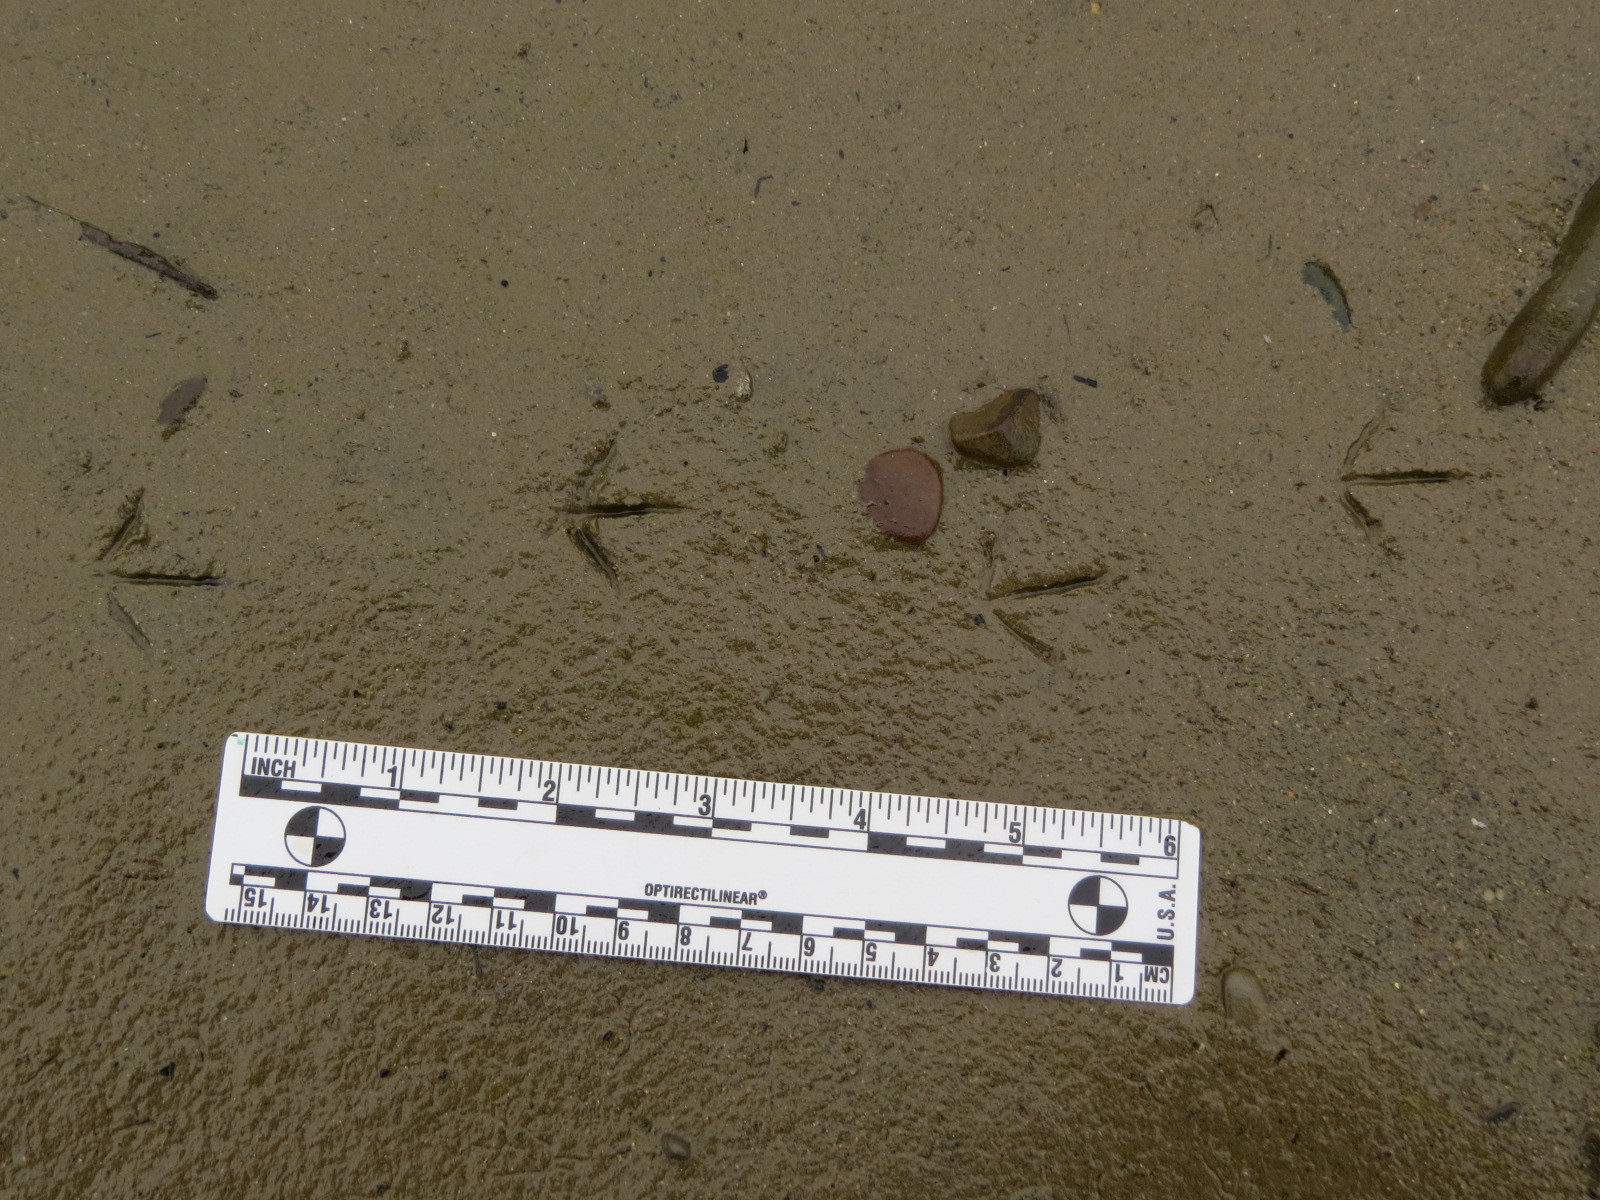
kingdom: Animalia
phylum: Chordata
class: Aves
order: Charadriiformes
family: Scolopacidae
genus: Calidris
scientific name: Calidris minutilla
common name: Least sandpiper
